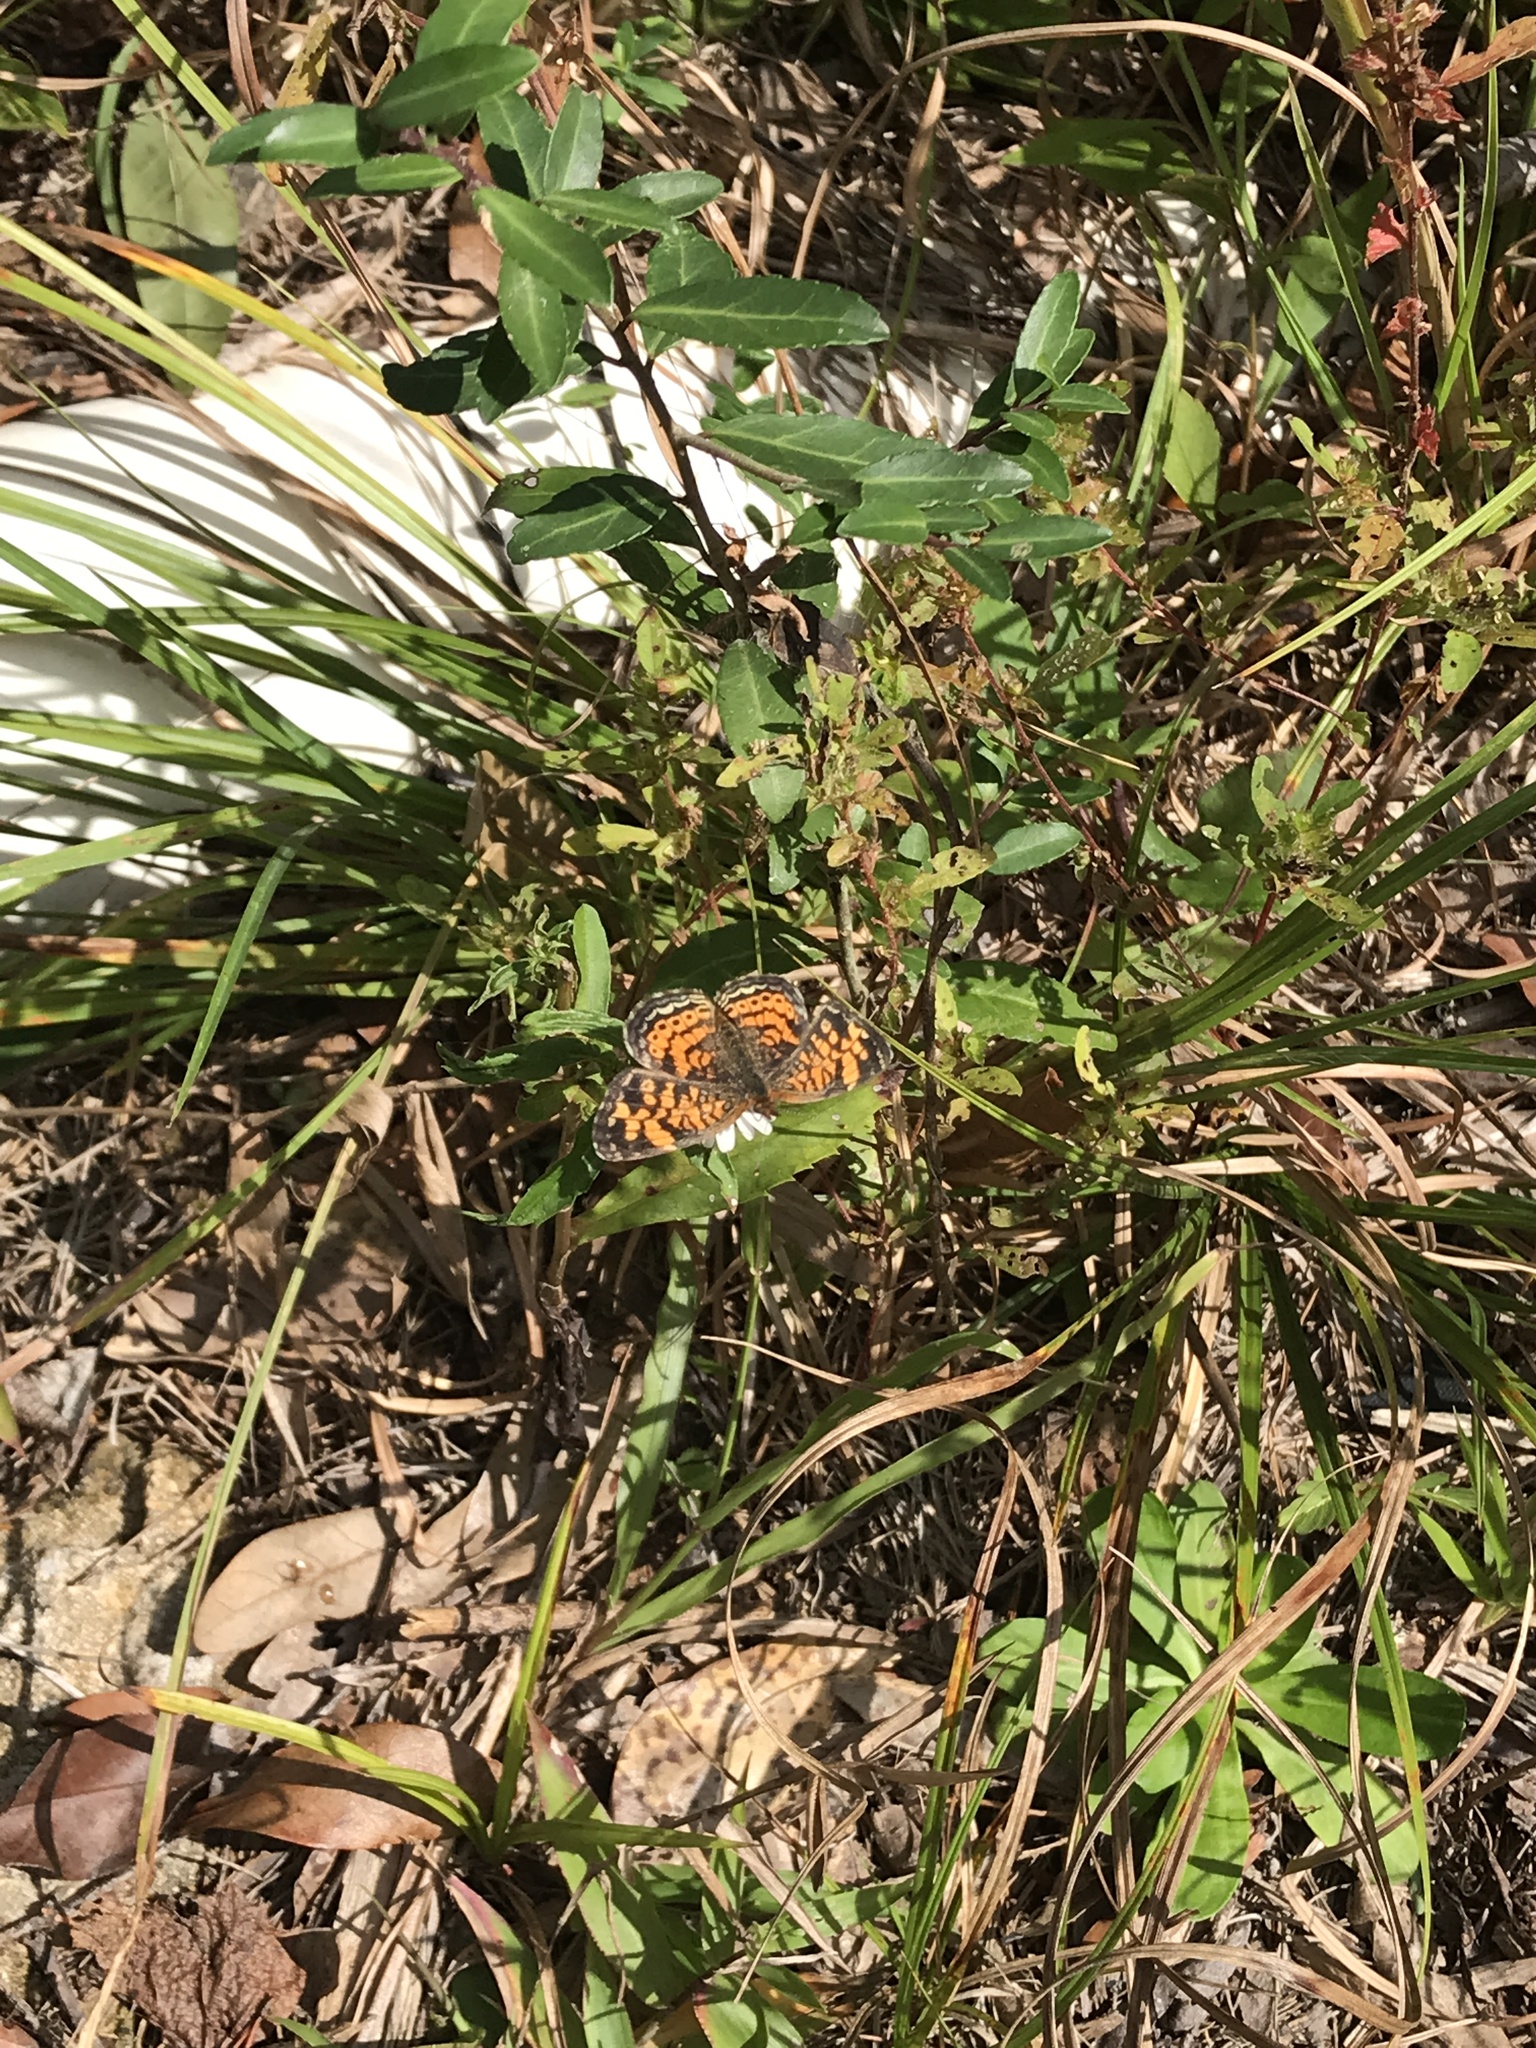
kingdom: Animalia
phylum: Arthropoda
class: Insecta
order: Lepidoptera
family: Nymphalidae
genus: Phyciodes
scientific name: Phyciodes tharos
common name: Pearl crescent
